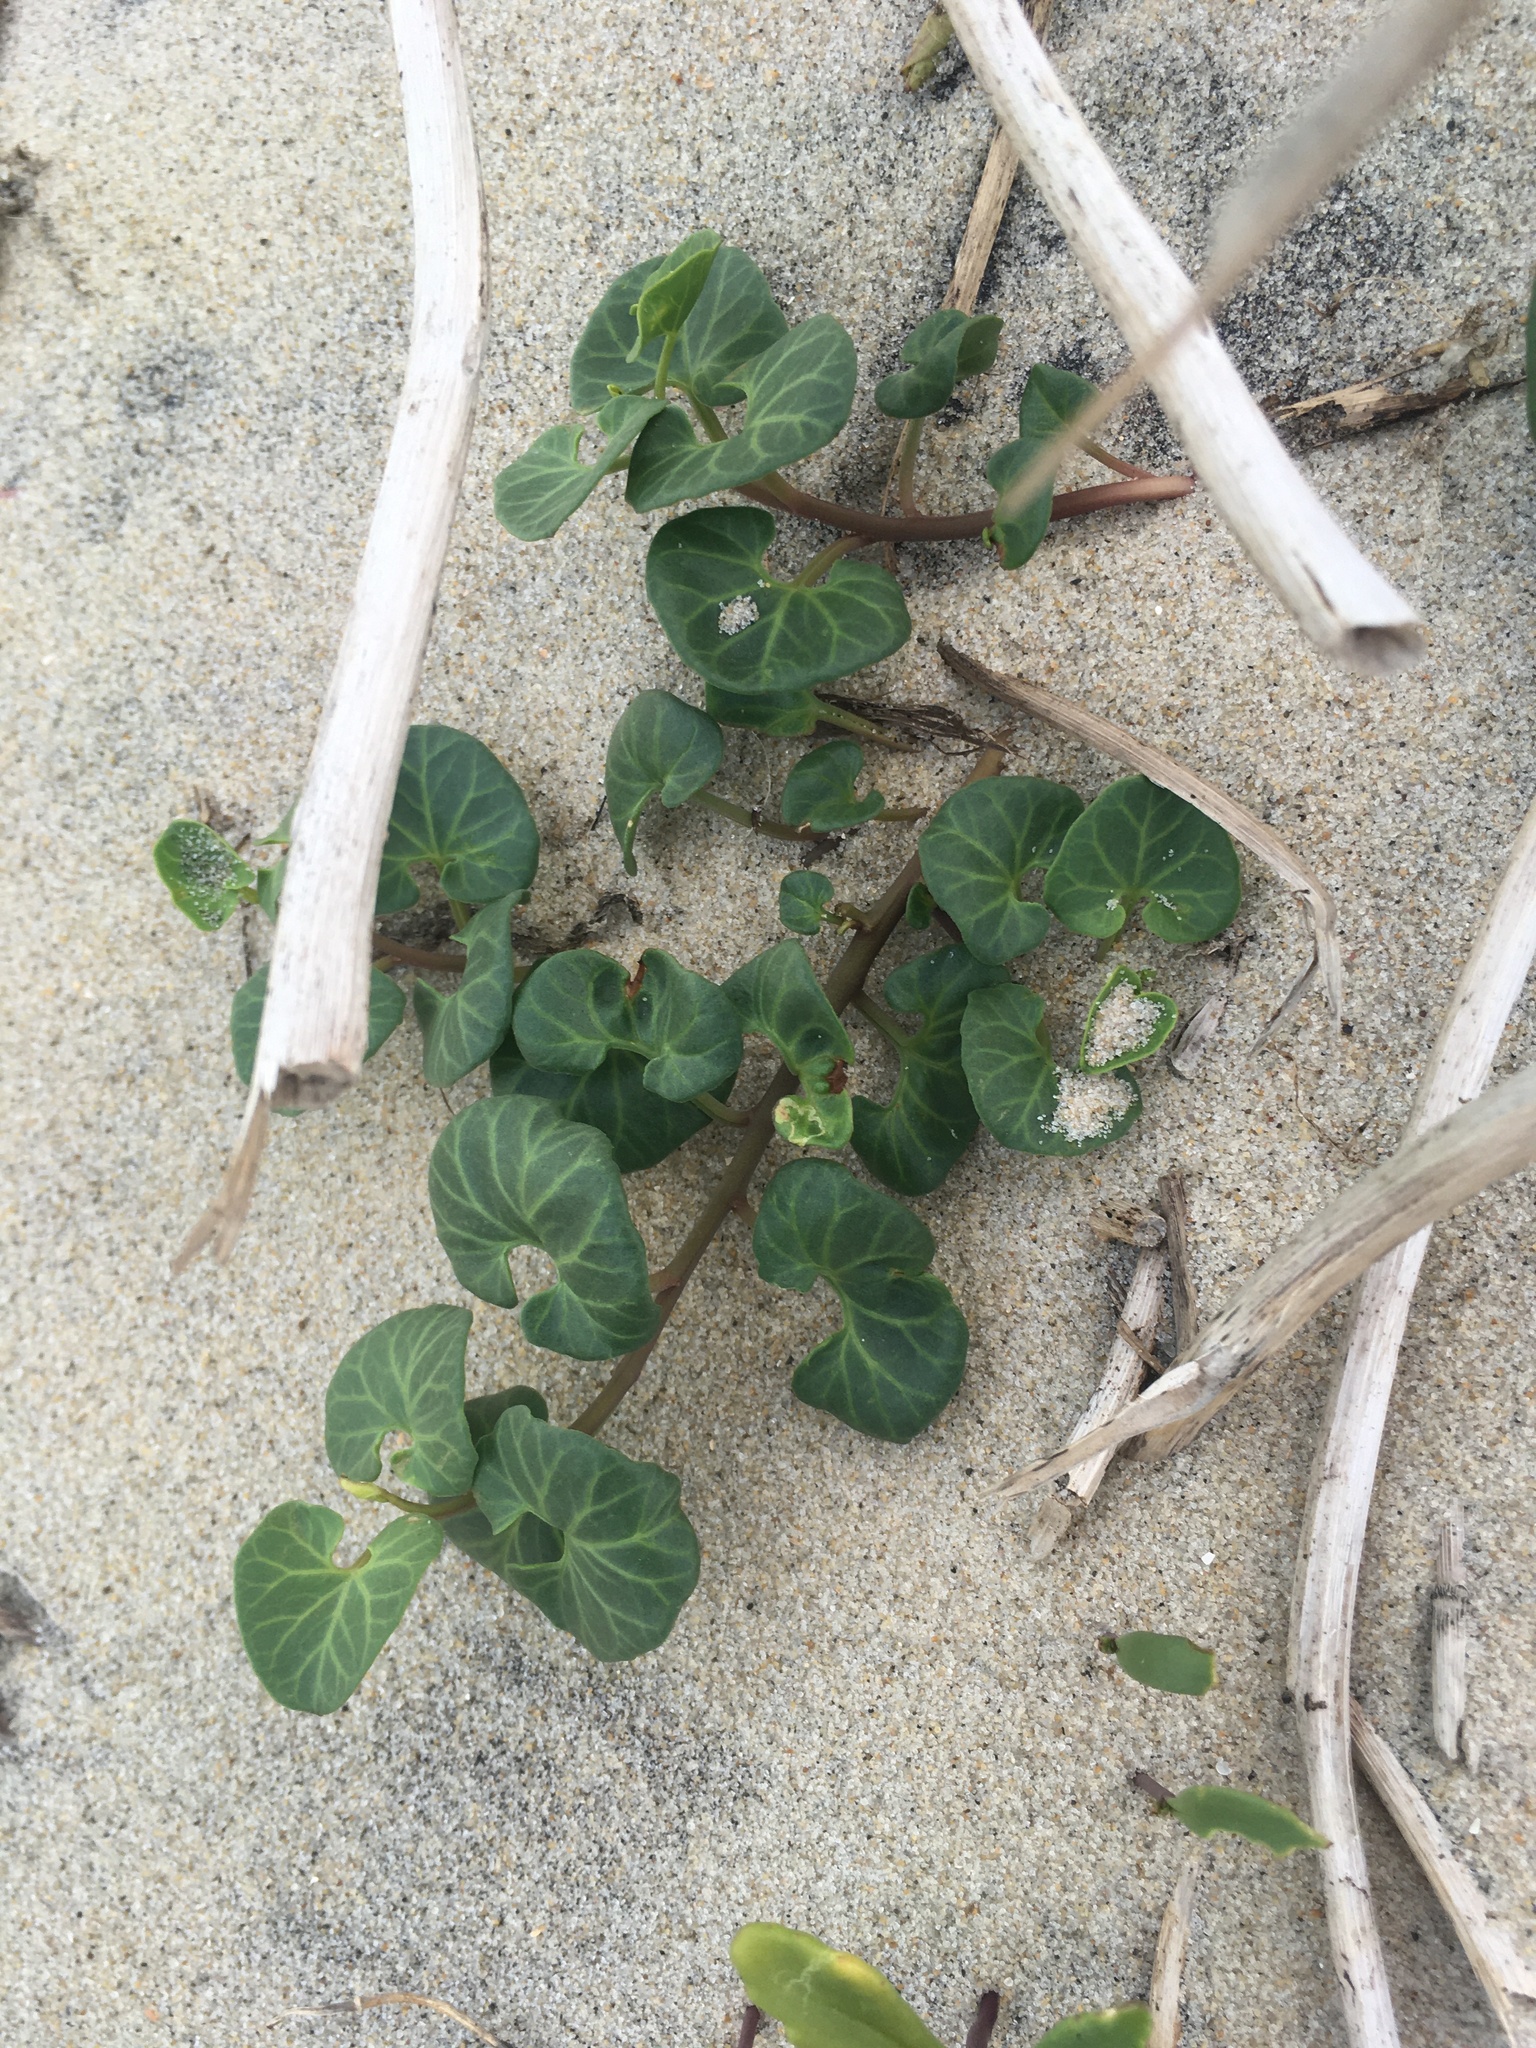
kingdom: Plantae
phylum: Tracheophyta
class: Magnoliopsida
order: Solanales
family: Convolvulaceae
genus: Calystegia
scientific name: Calystegia soldanella
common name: Sea bindweed
